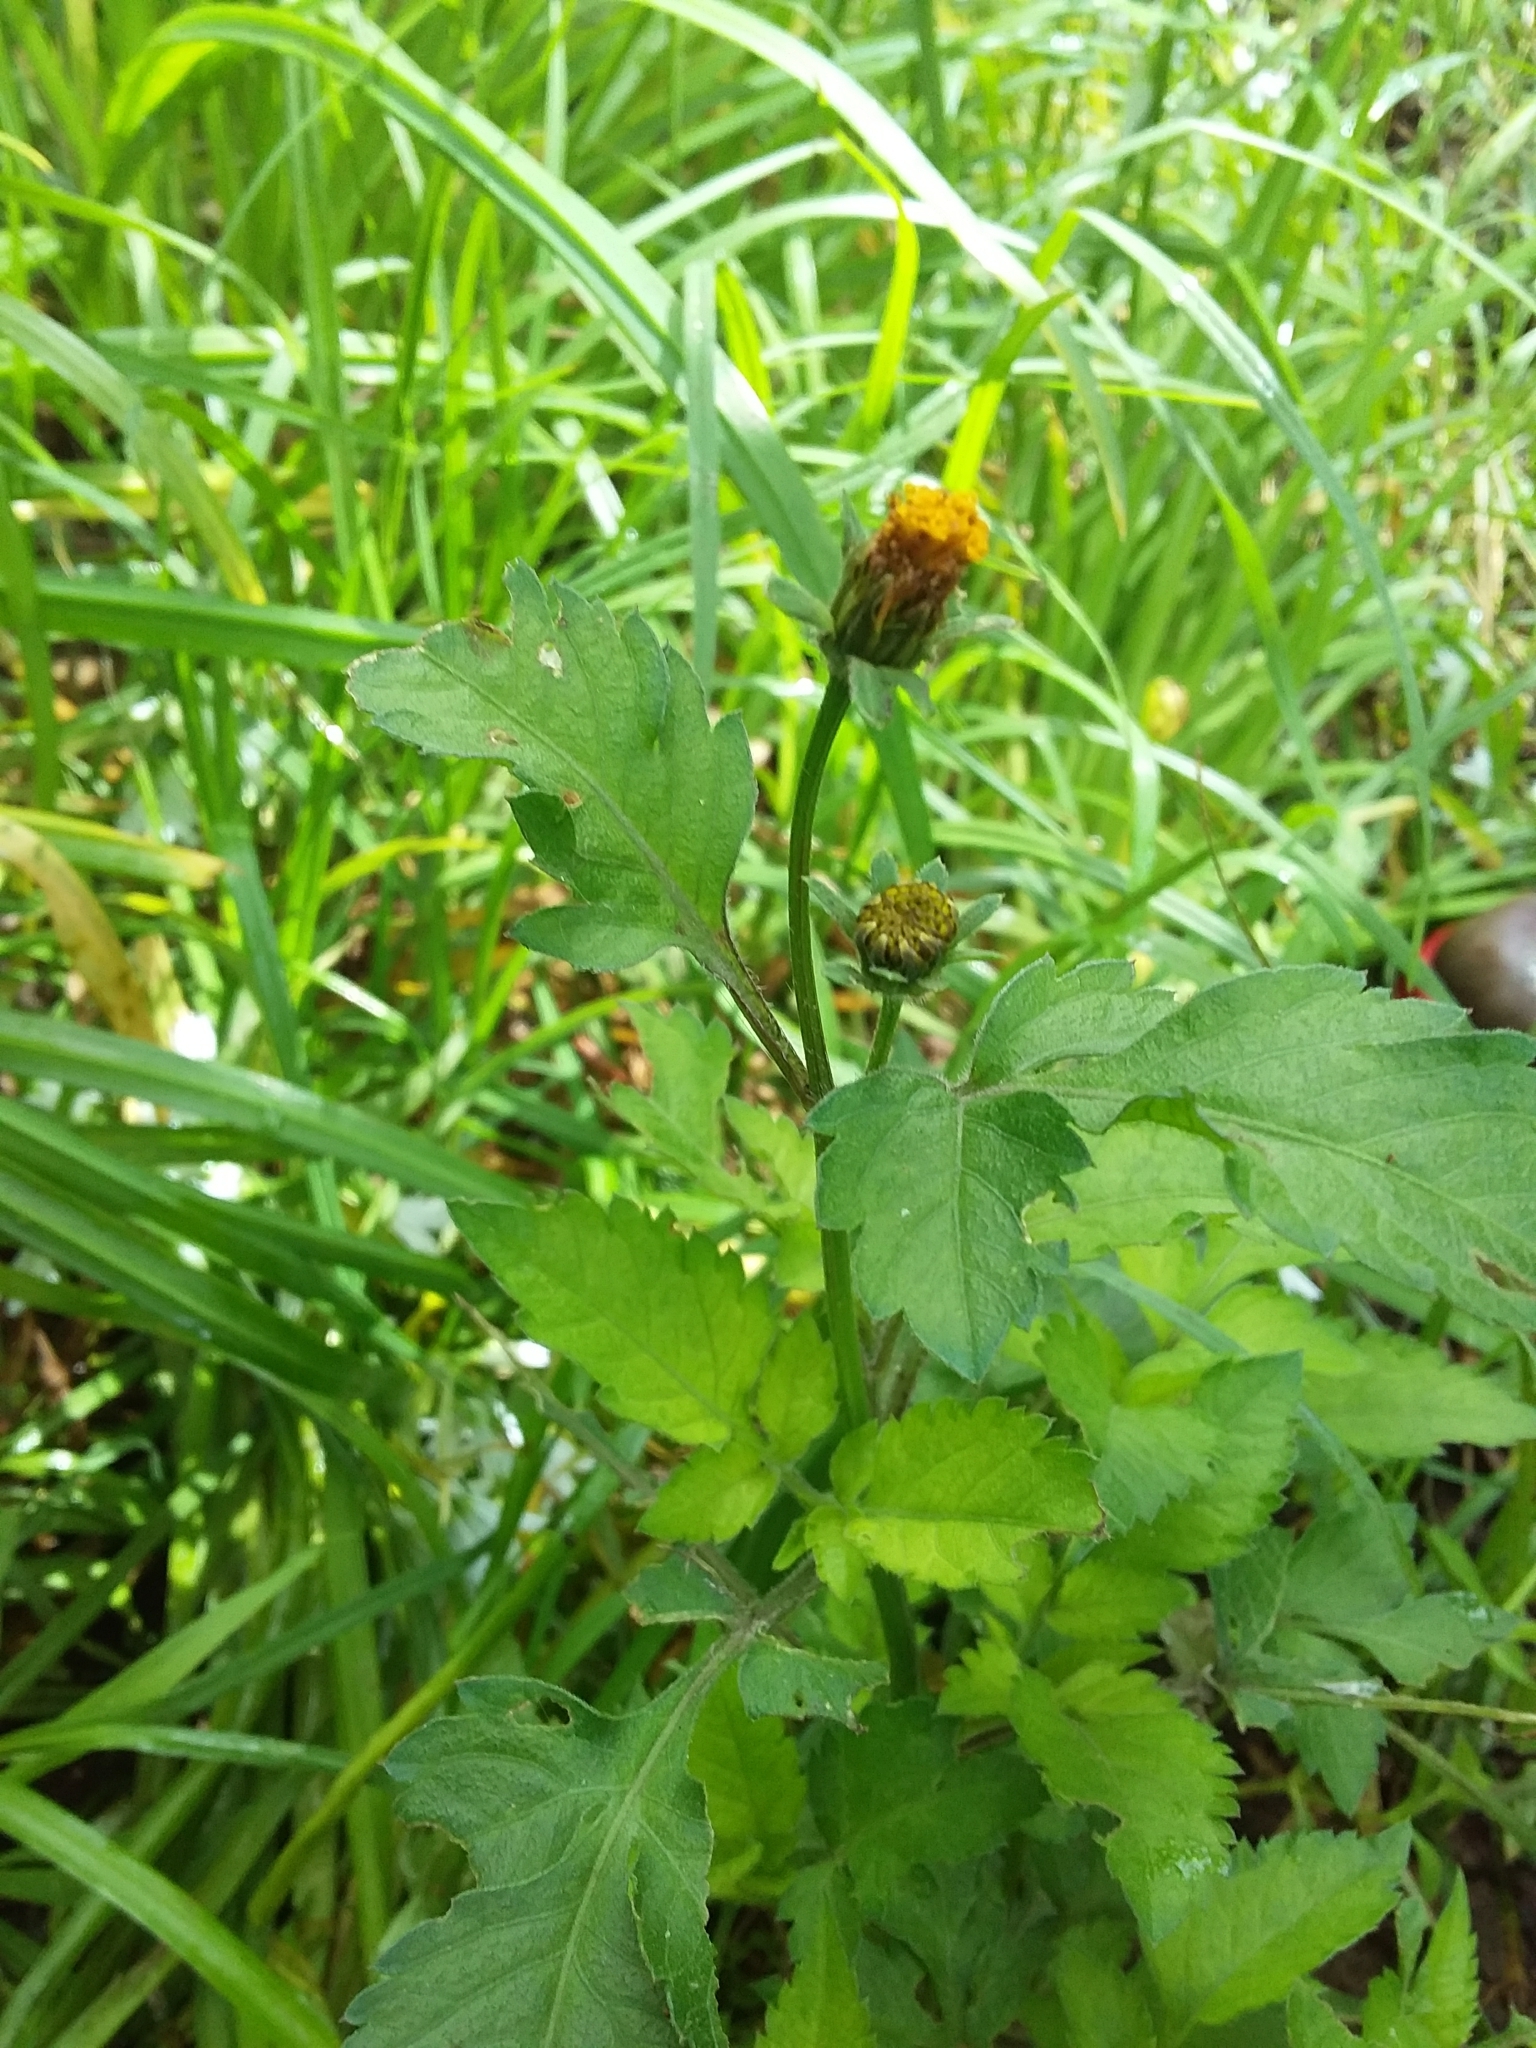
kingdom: Plantae
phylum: Tracheophyta
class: Magnoliopsida
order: Asterales
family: Asteraceae
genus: Bidens
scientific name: Bidens pilosa
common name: Black-jack
